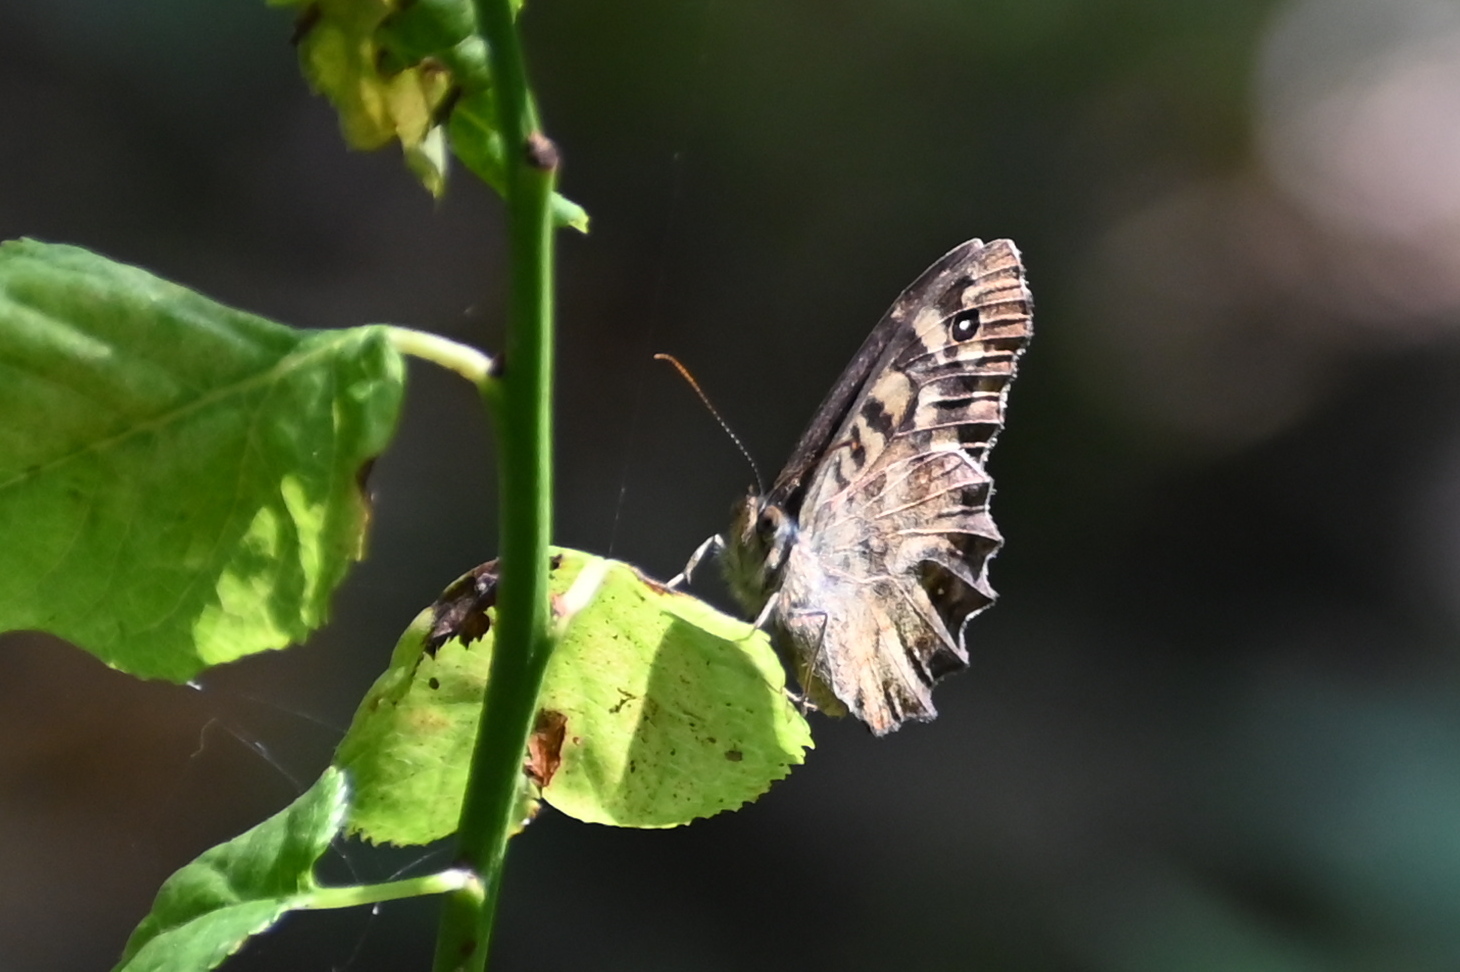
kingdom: Animalia
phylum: Arthropoda
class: Insecta
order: Lepidoptera
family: Nymphalidae
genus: Pararge
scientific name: Pararge aegeria
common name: Speckled wood
